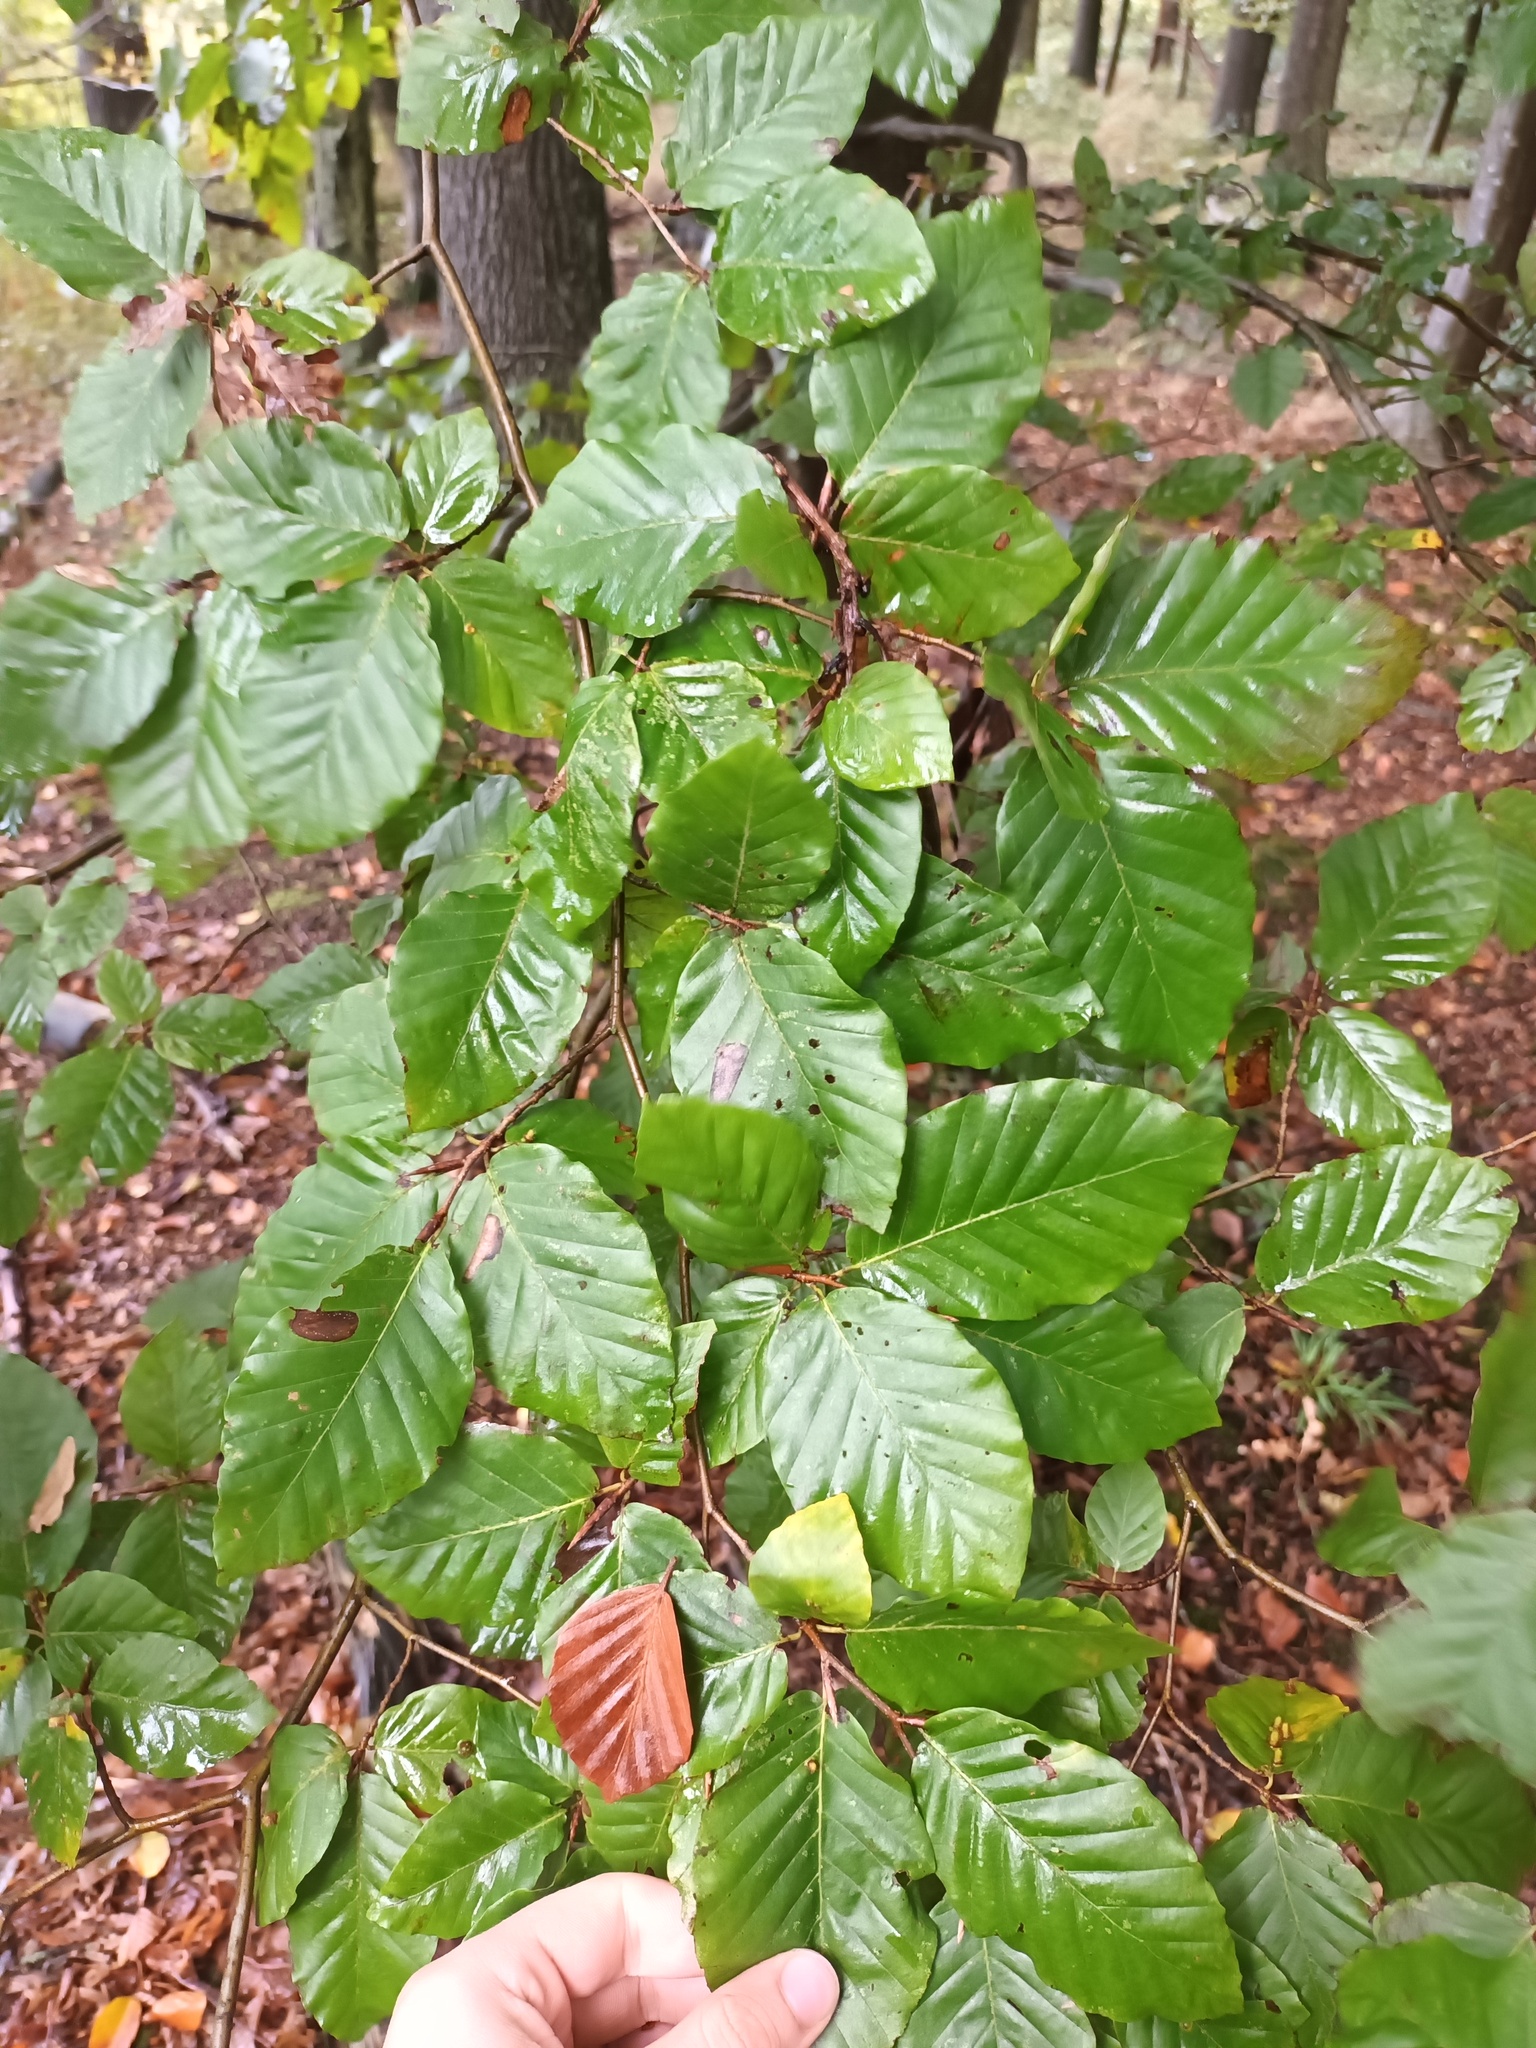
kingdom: Plantae
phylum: Tracheophyta
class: Magnoliopsida
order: Fagales
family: Fagaceae
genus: Fagus
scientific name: Fagus sylvatica
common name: Beech
